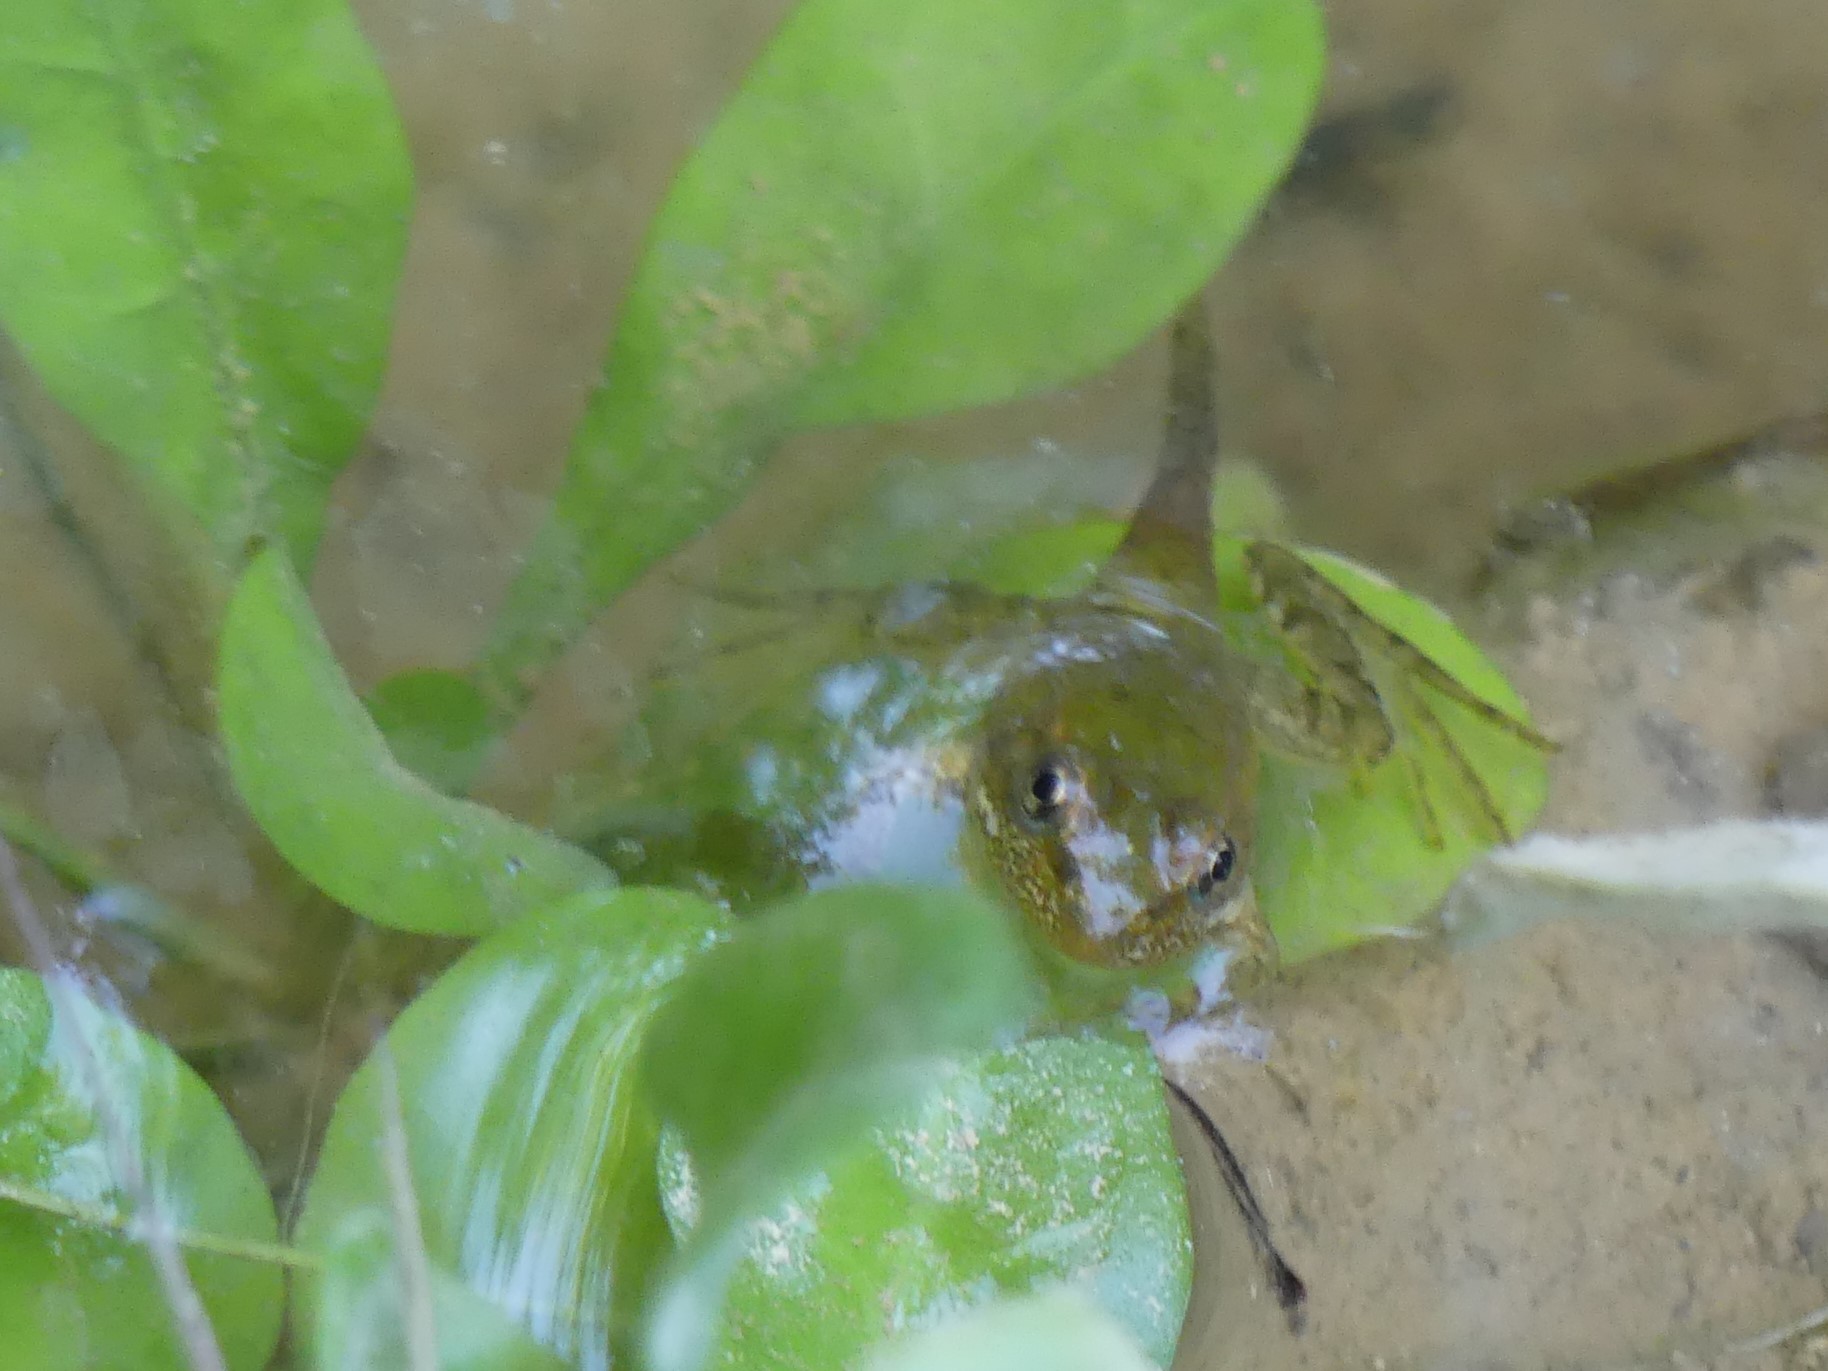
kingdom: Animalia
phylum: Chordata
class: Amphibia
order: Anura
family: Ranidae
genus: Pelophylax
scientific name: Pelophylax ridibundus
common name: Marsh frog
